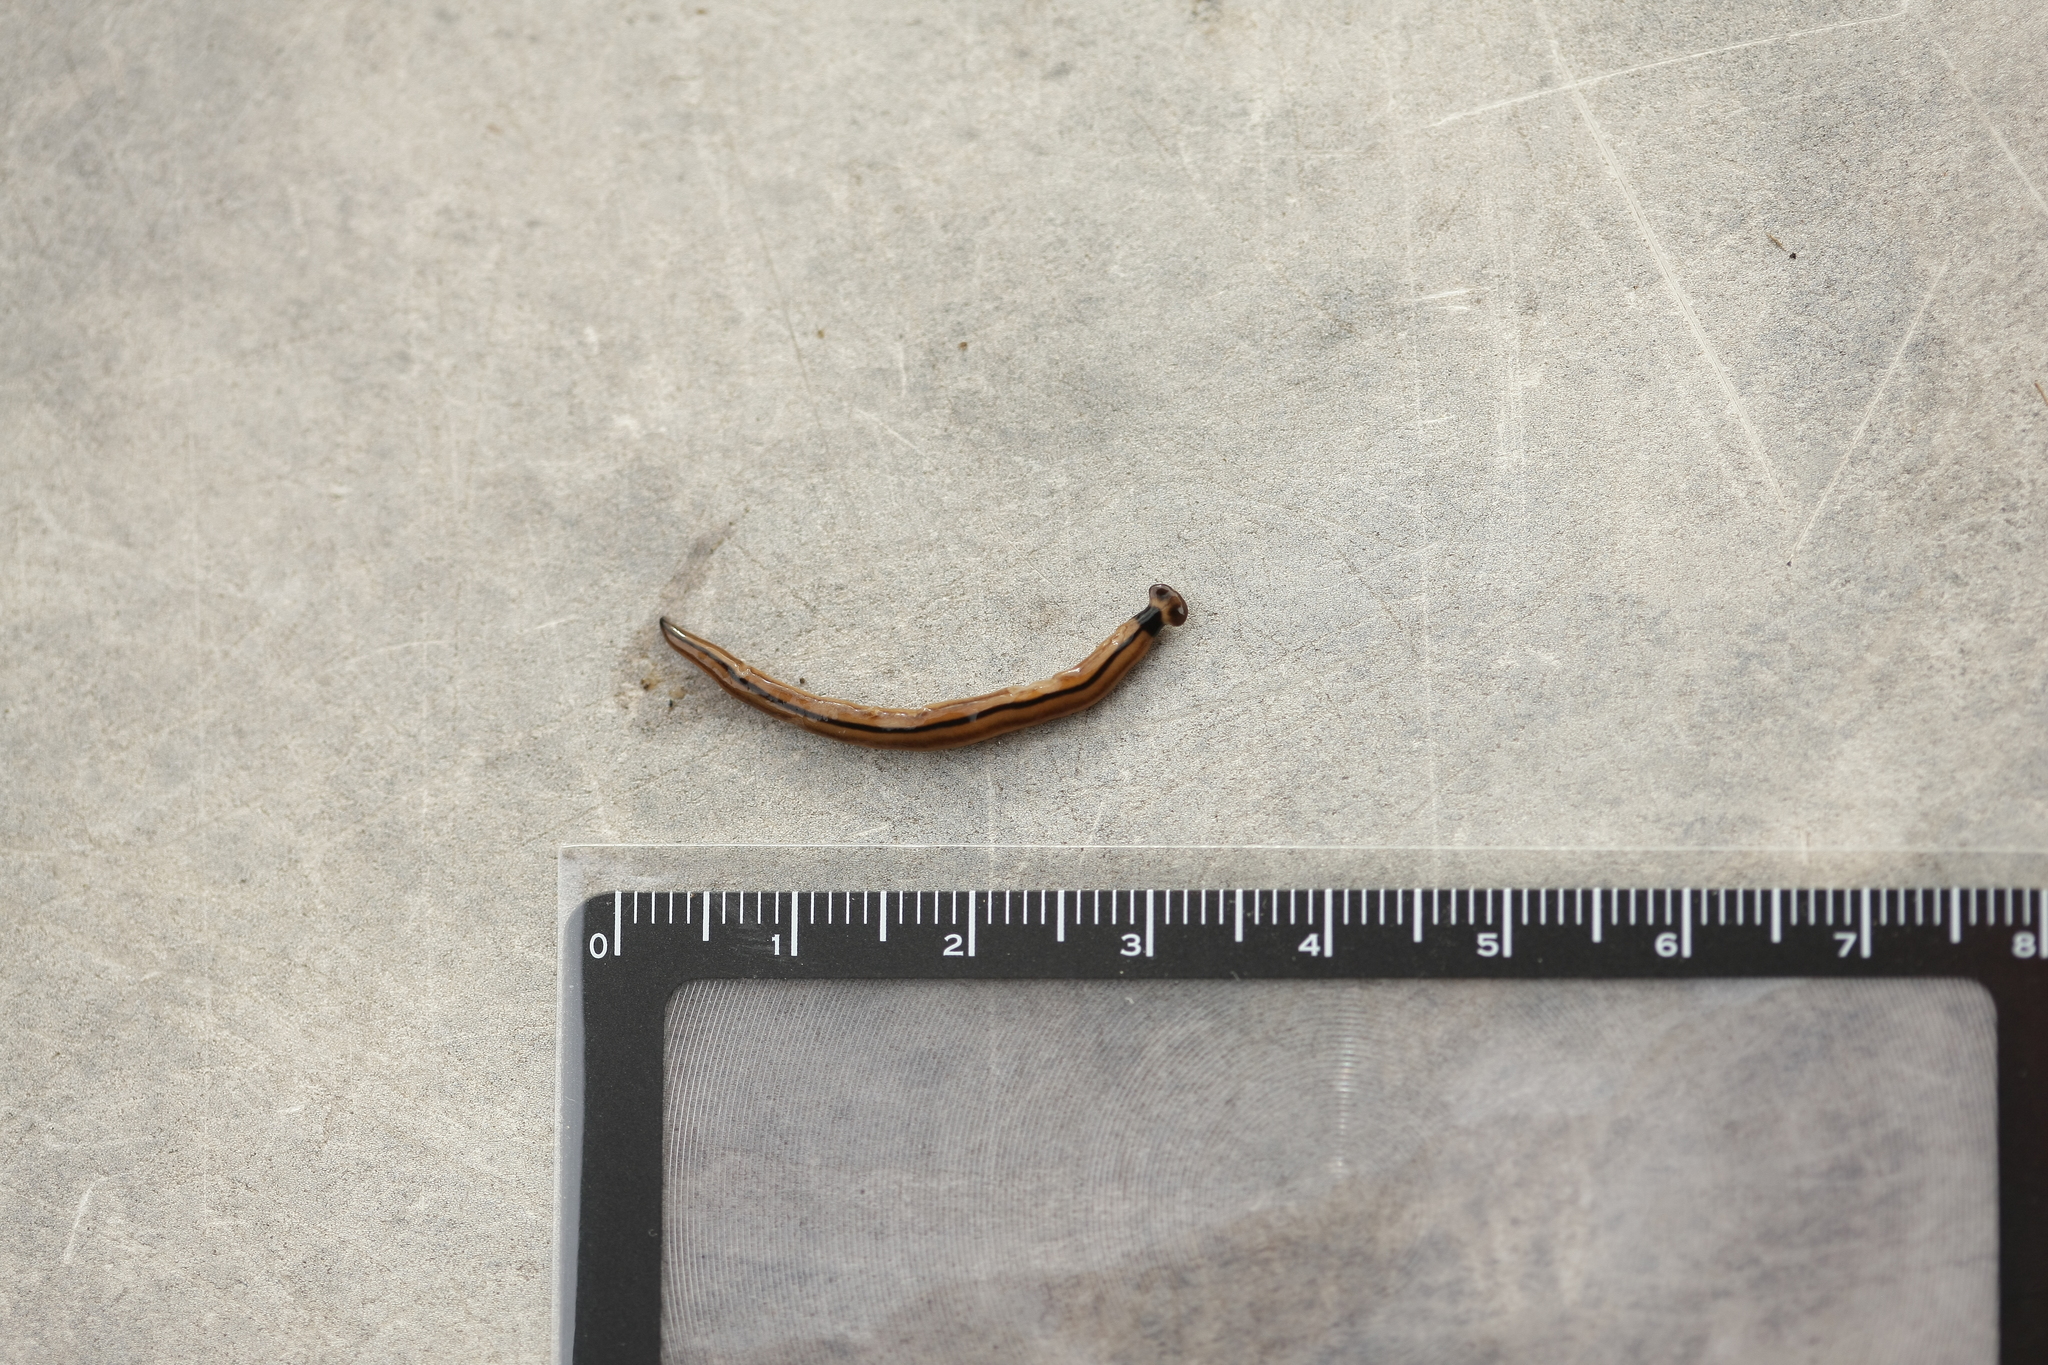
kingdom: Animalia
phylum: Platyhelminthes
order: Tricladida
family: Geoplanidae
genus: Bipalium
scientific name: Bipalium vagum
